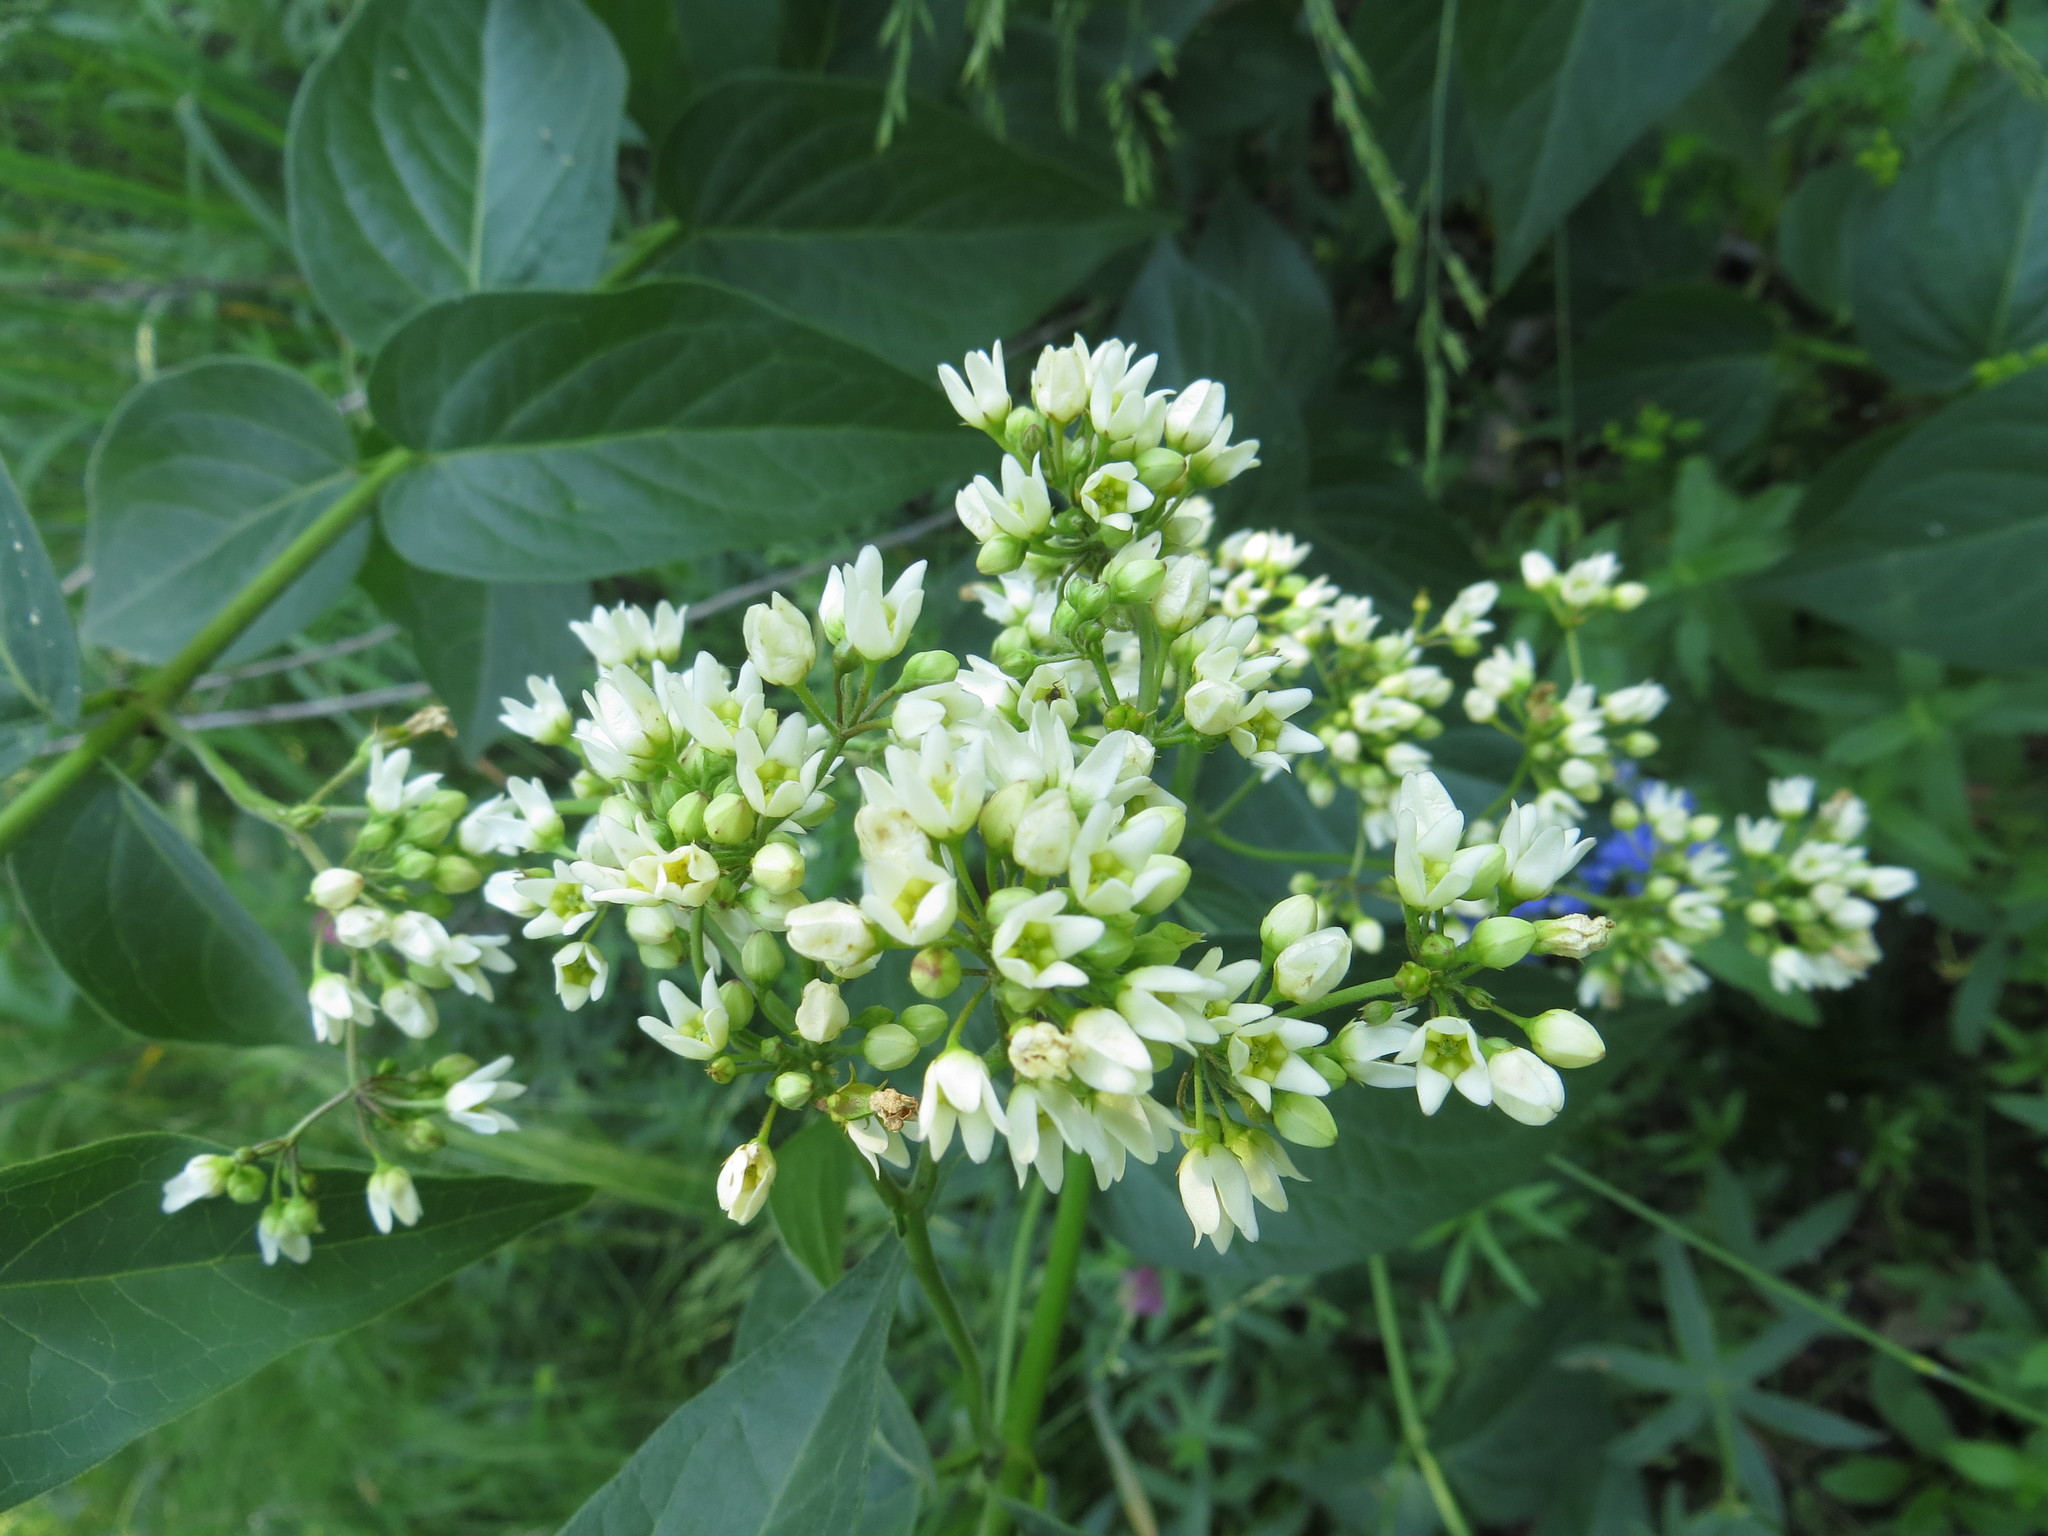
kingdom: Plantae
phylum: Tracheophyta
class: Magnoliopsida
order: Gentianales
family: Apocynaceae
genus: Vincetoxicum
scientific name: Vincetoxicum hirundinaria
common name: White swallowwort
